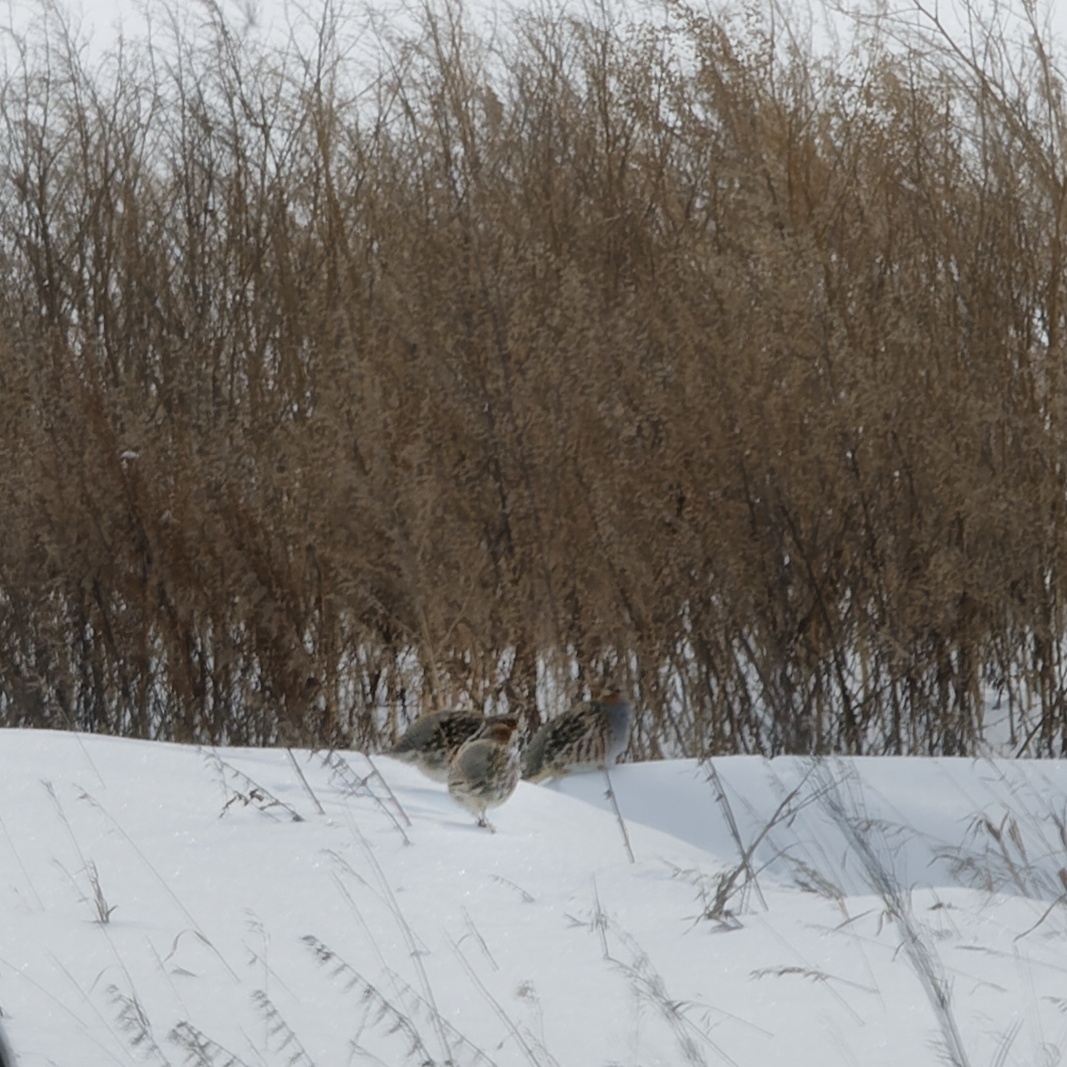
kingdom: Animalia
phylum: Chordata
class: Aves
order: Galliformes
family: Phasianidae
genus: Perdix
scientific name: Perdix perdix
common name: Grey partridge
